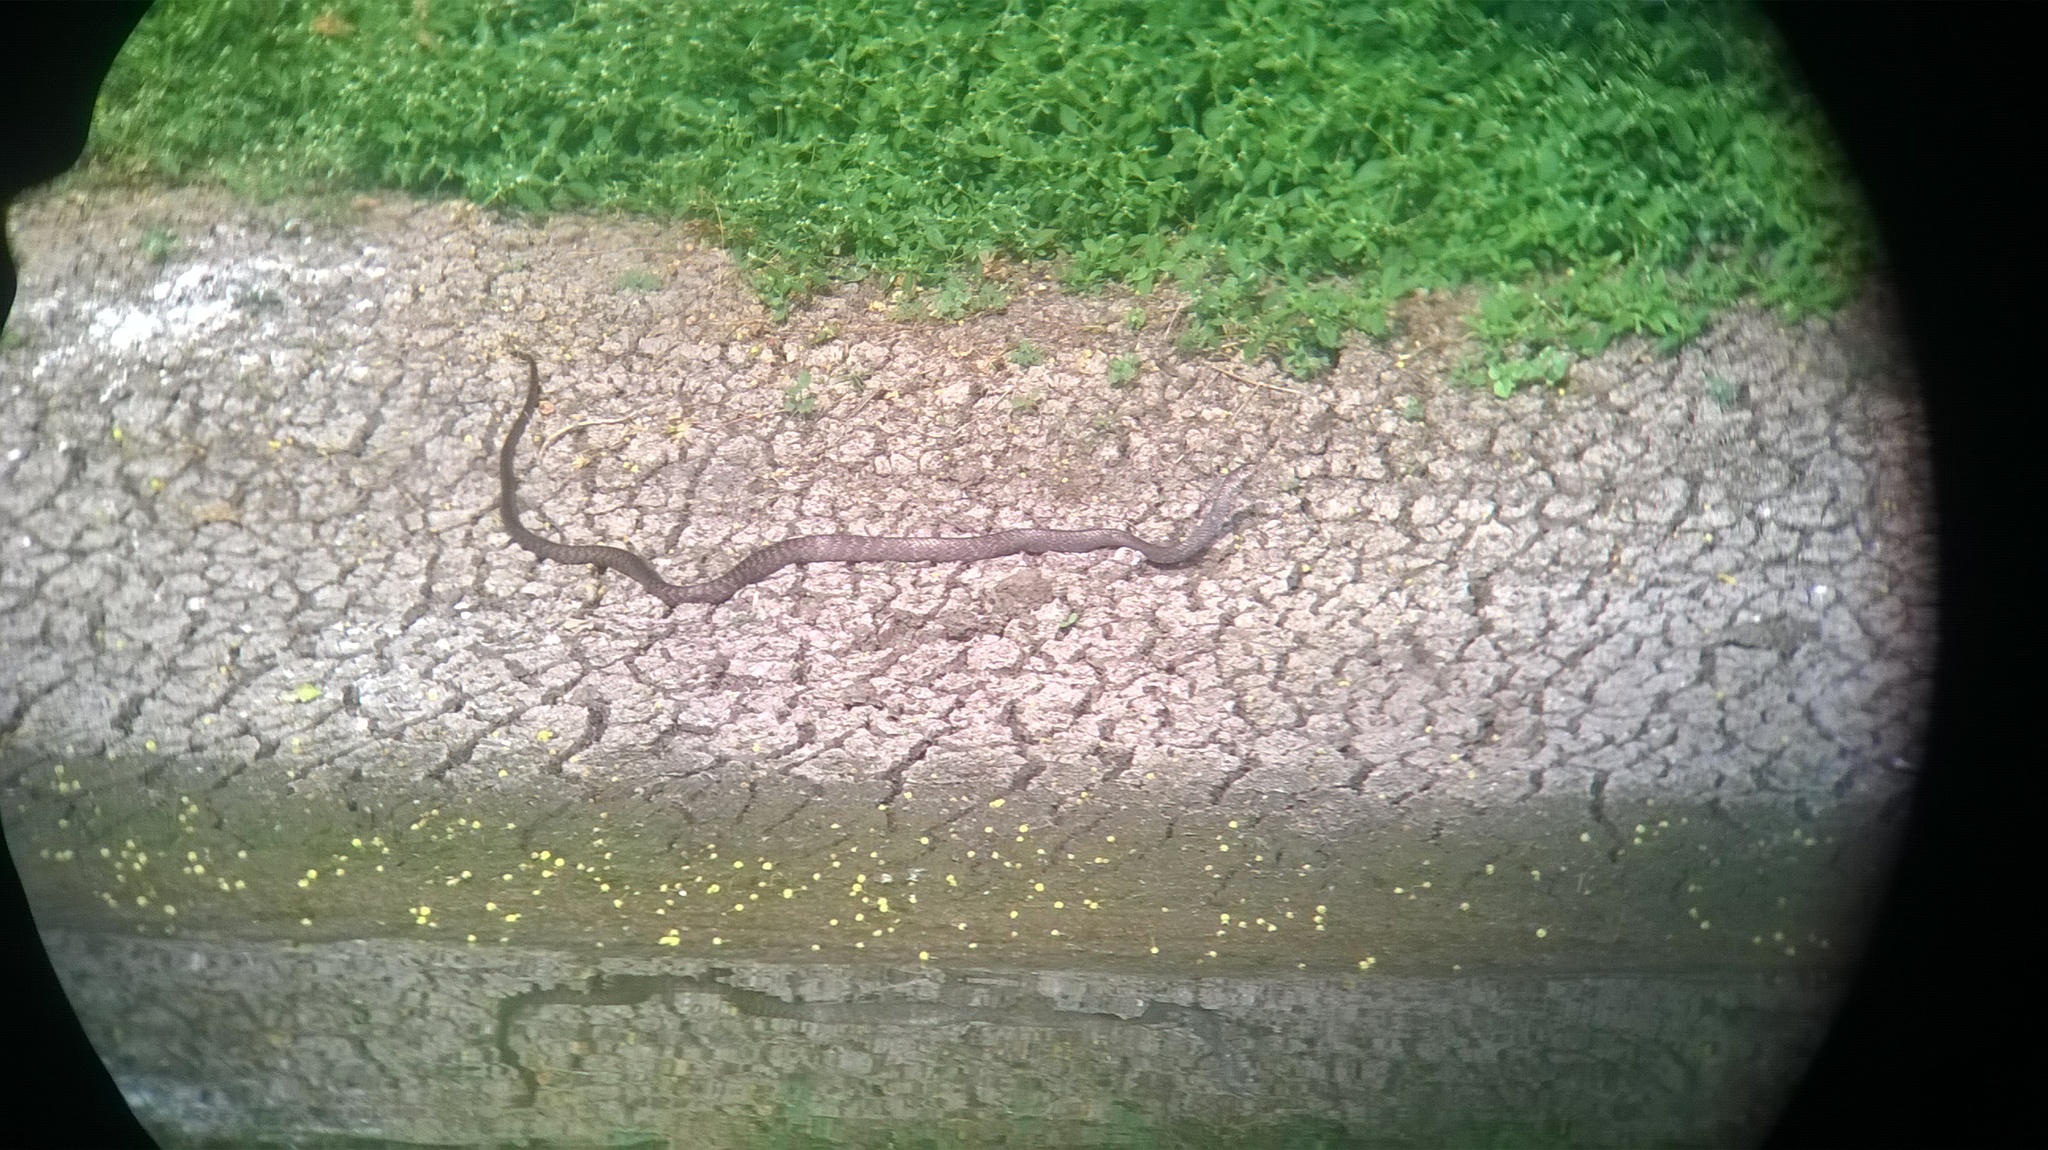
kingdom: Animalia
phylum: Chordata
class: Squamata
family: Colubridae
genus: Ptyas
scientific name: Ptyas mucosa
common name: Oriental ratsnake
